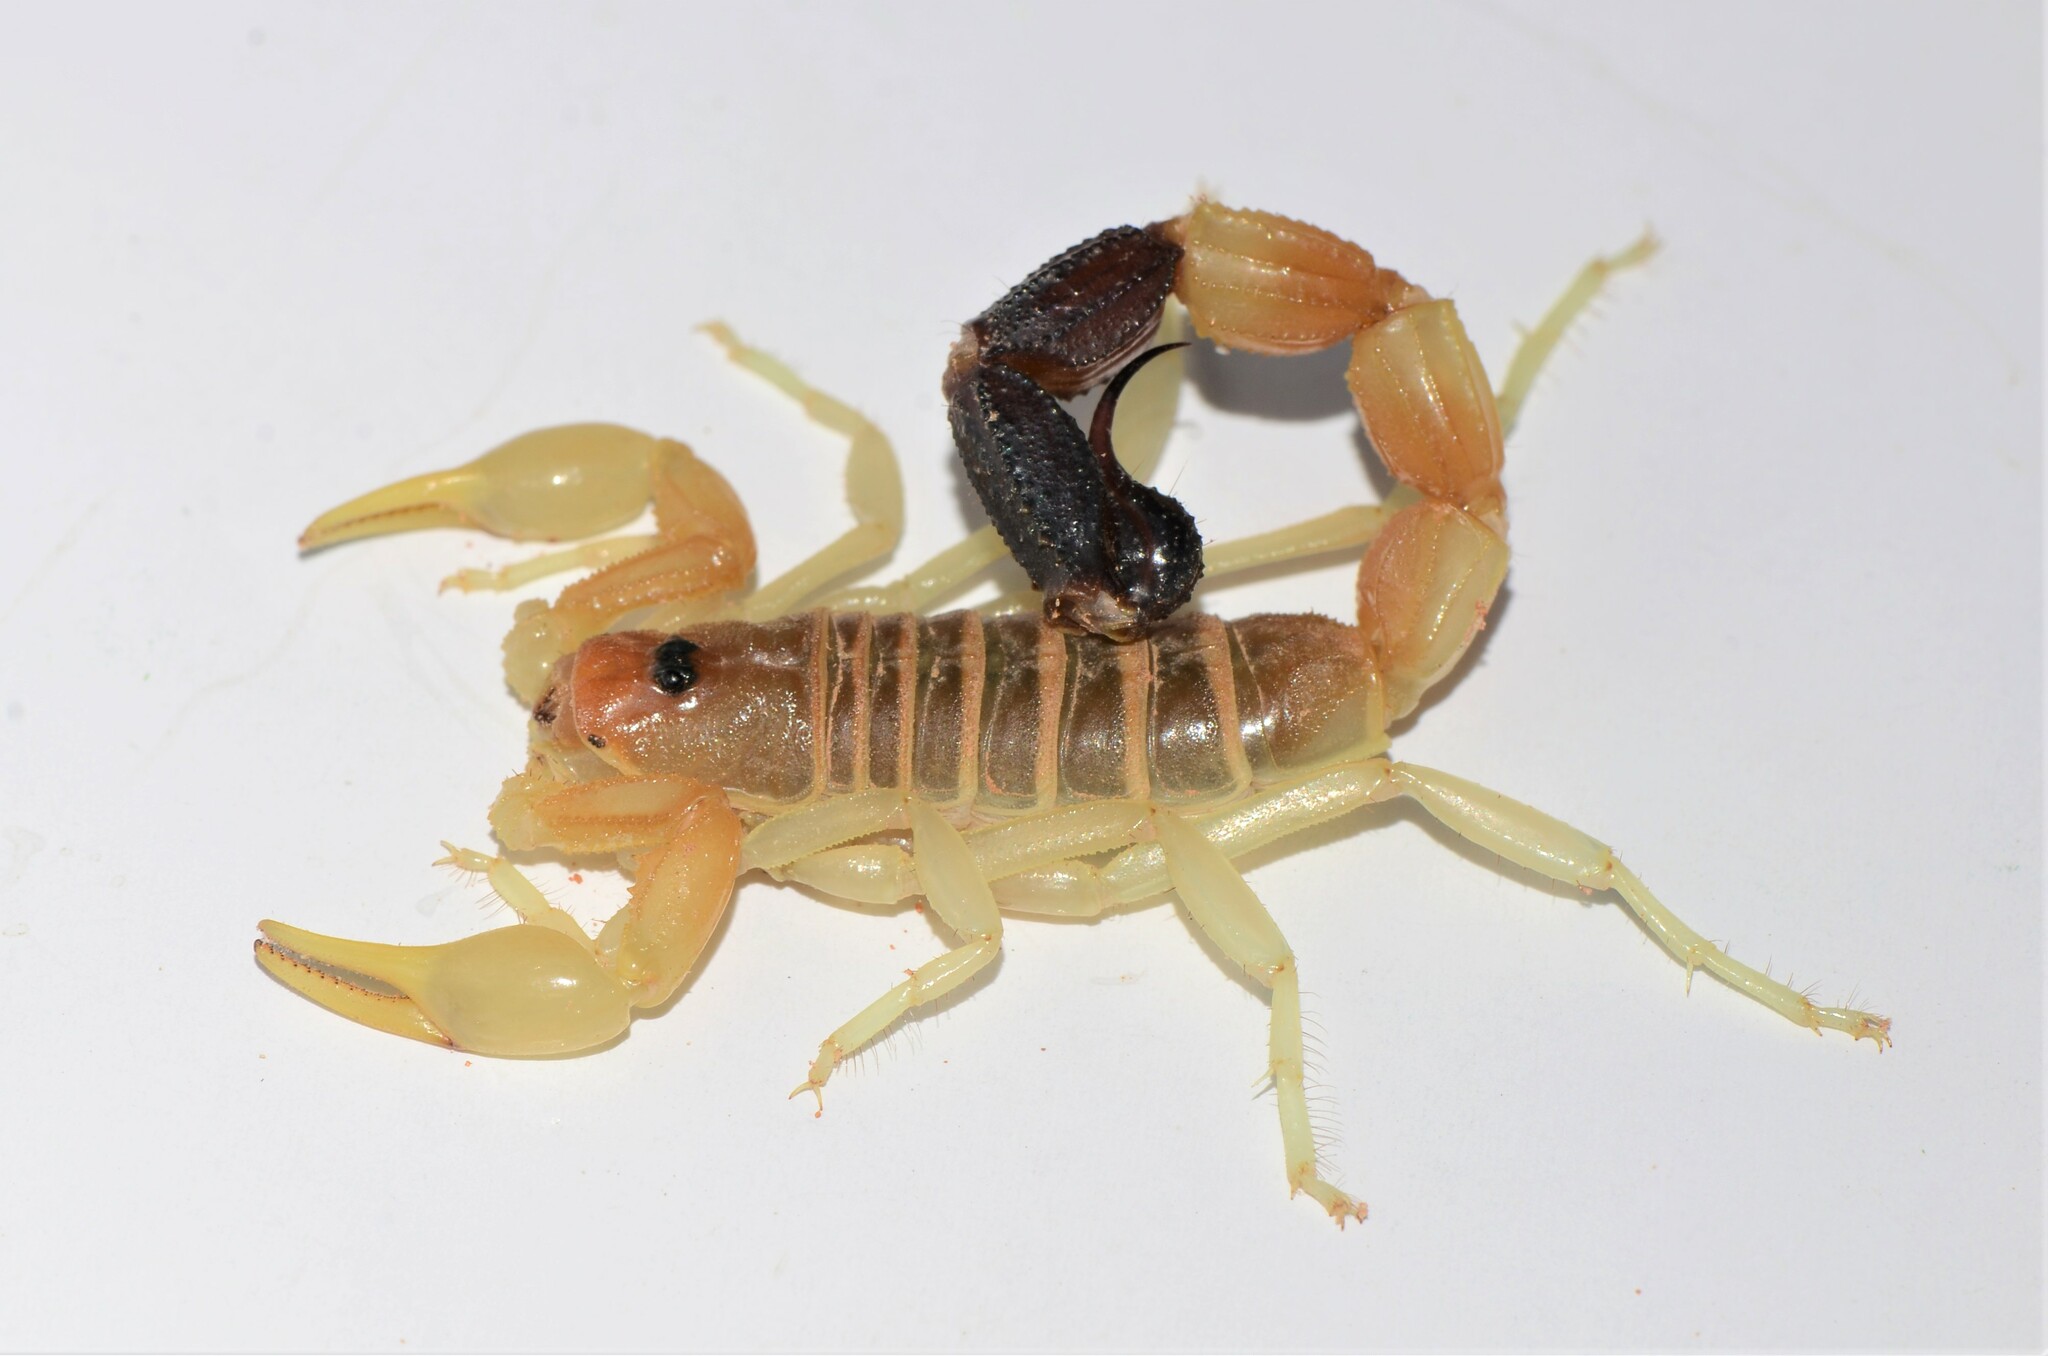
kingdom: Animalia
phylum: Arthropoda
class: Arachnida
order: Scorpiones
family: Buthidae
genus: Parabuthus
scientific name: Parabuthus laevifrons
